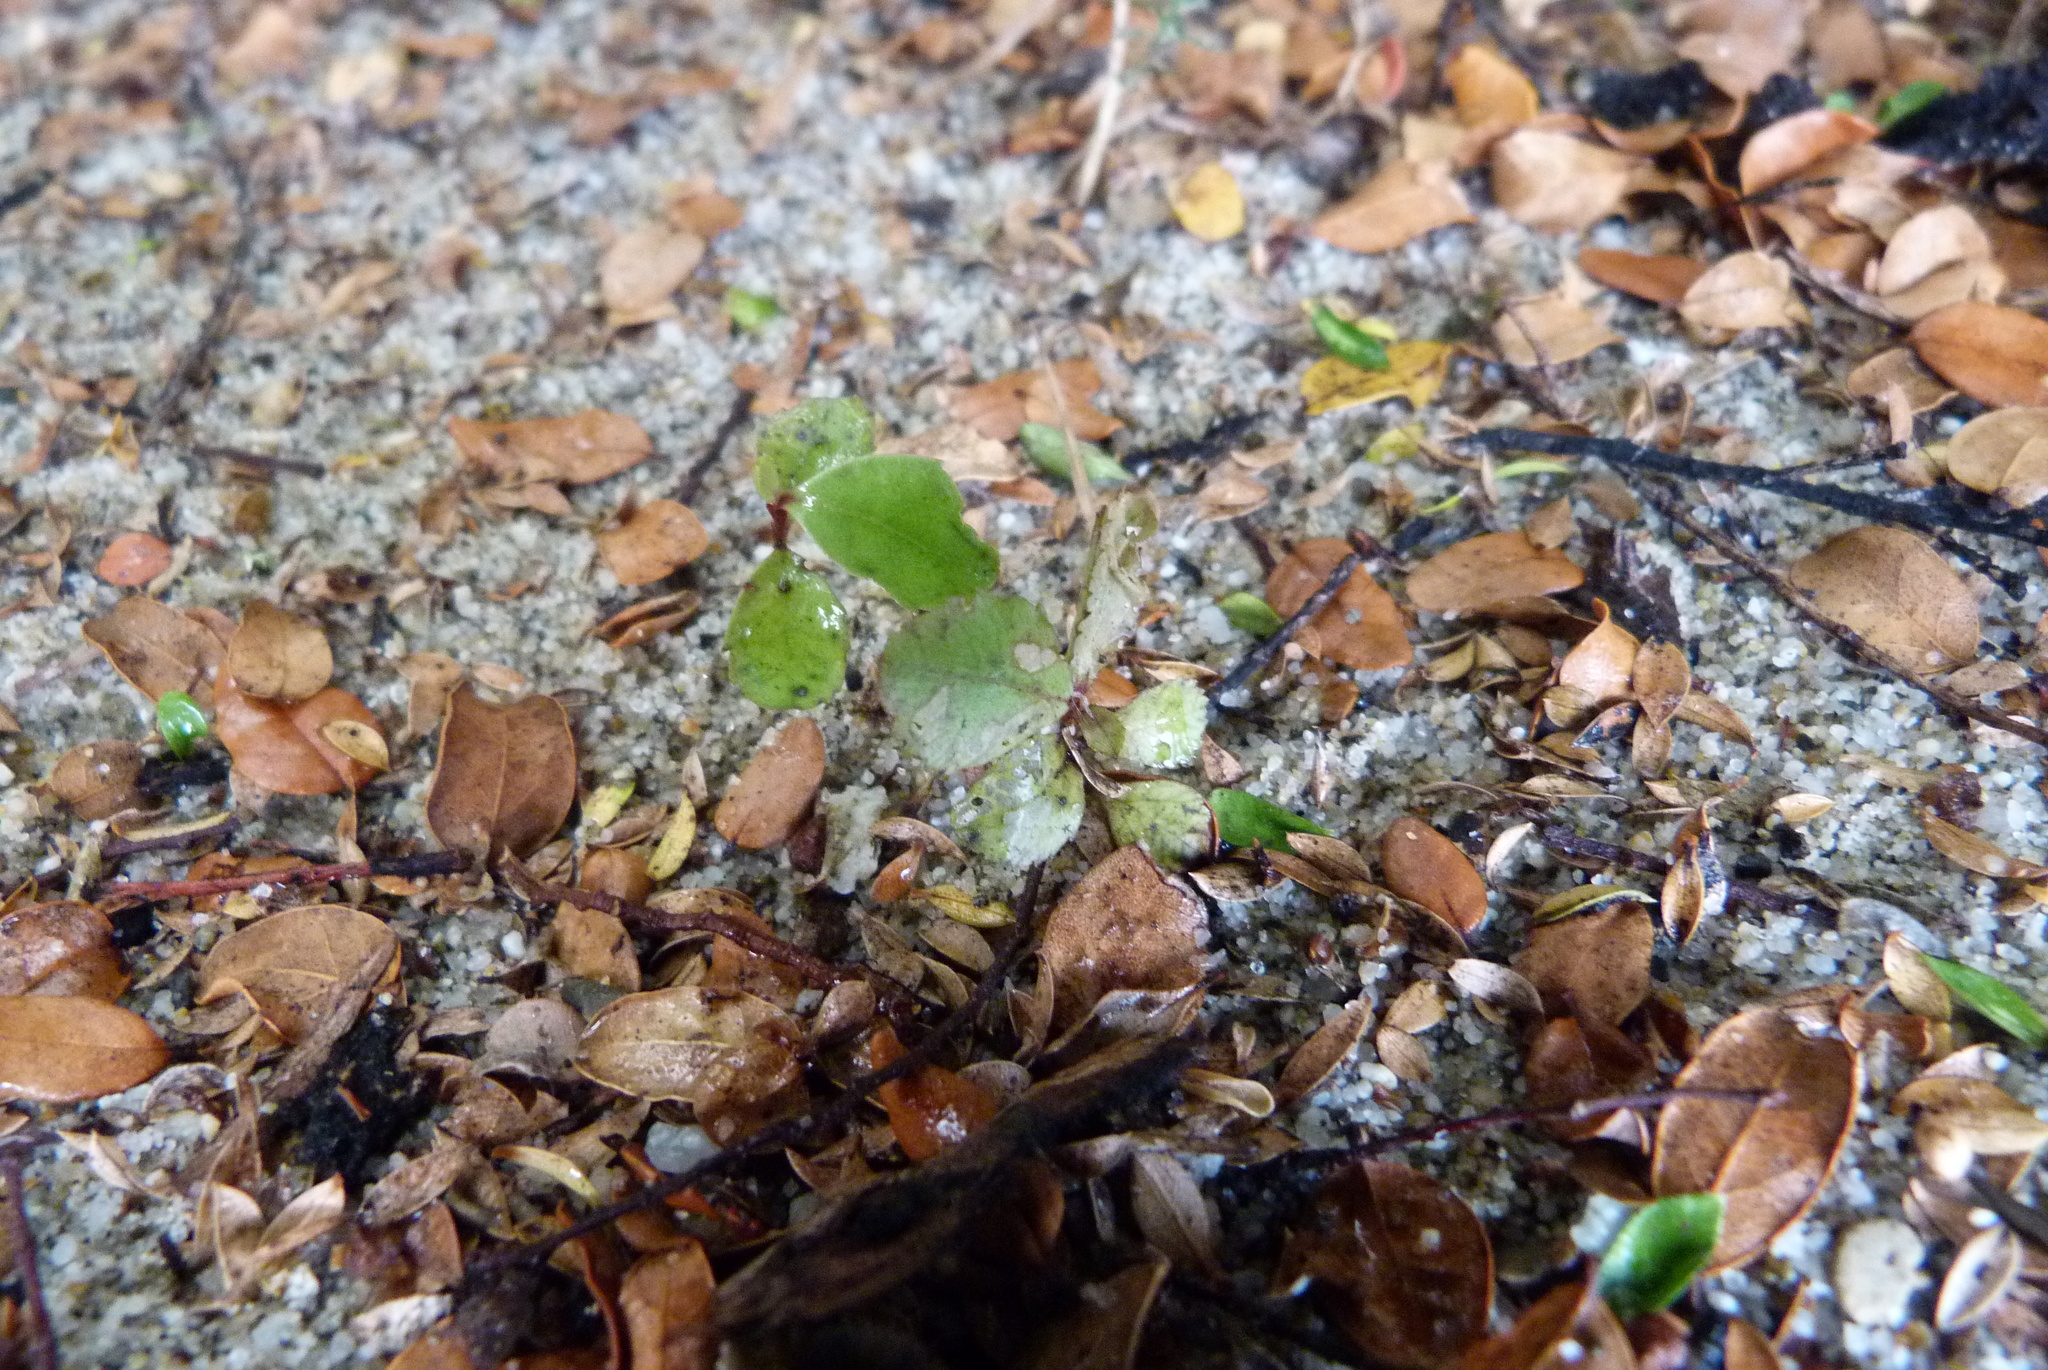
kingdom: Plantae
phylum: Tracheophyta
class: Magnoliopsida
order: Ericales
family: Primulaceae
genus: Myrsine
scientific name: Myrsine australis
